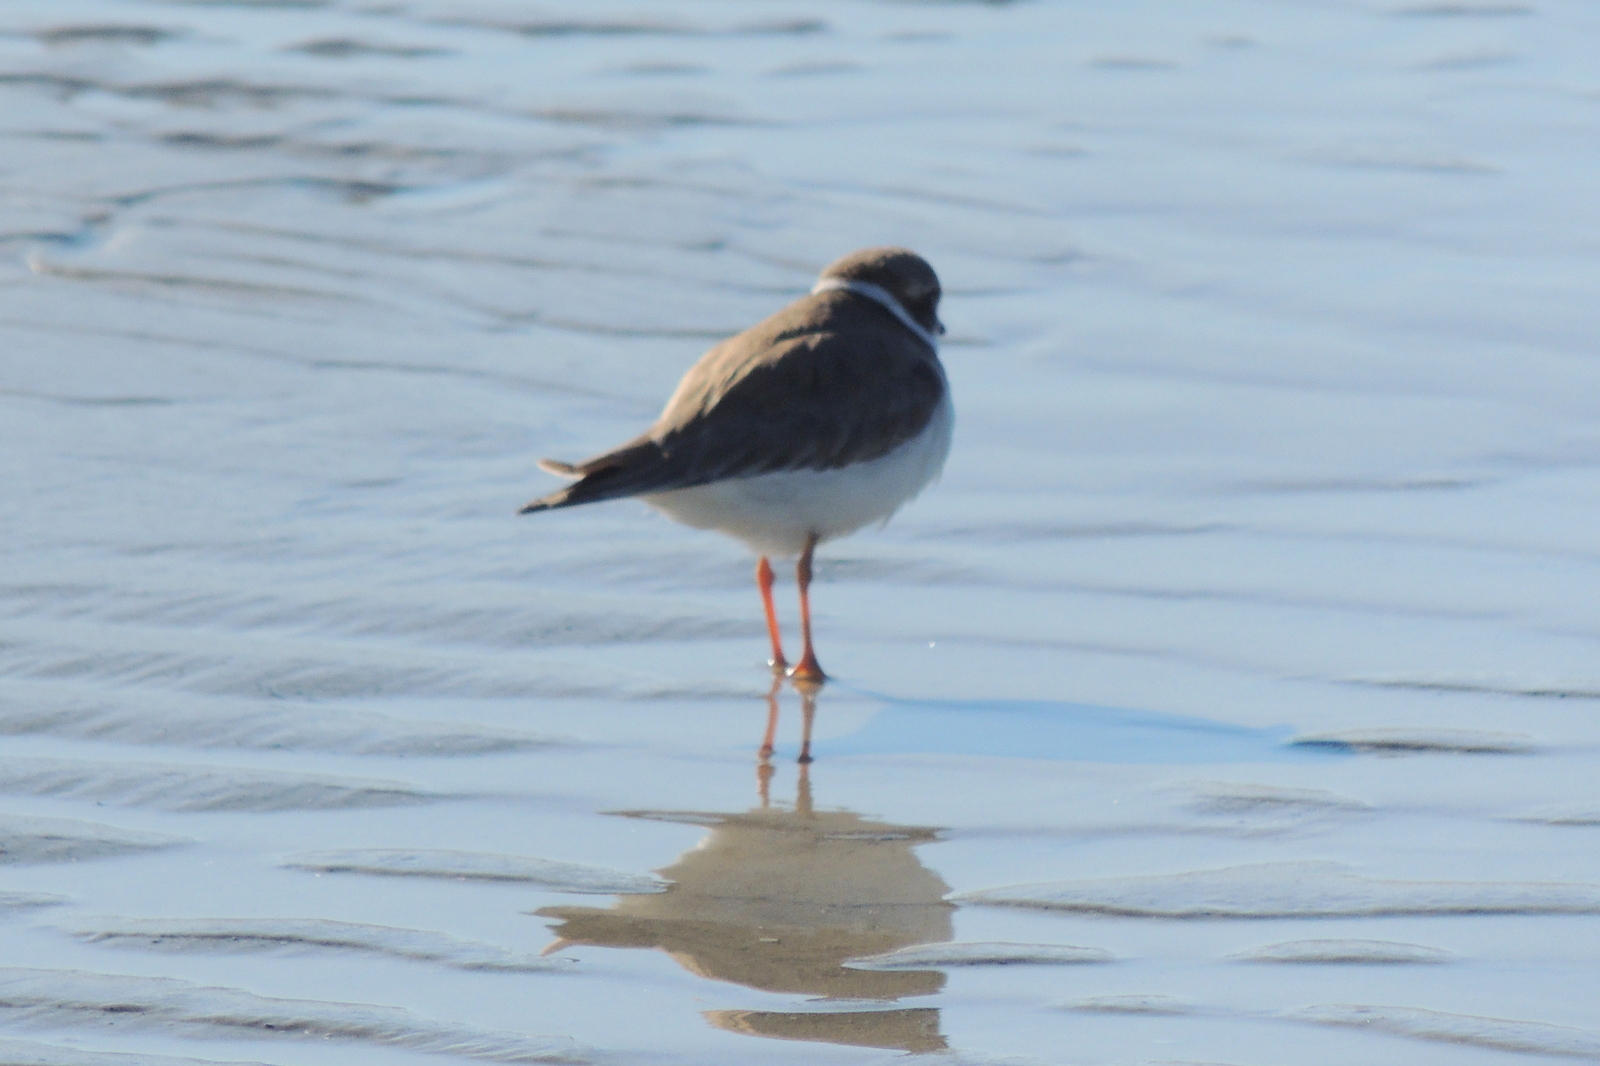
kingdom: Animalia
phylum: Chordata
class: Aves
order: Charadriiformes
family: Charadriidae
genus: Charadrius
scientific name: Charadrius semipalmatus
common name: Semipalmated plover
